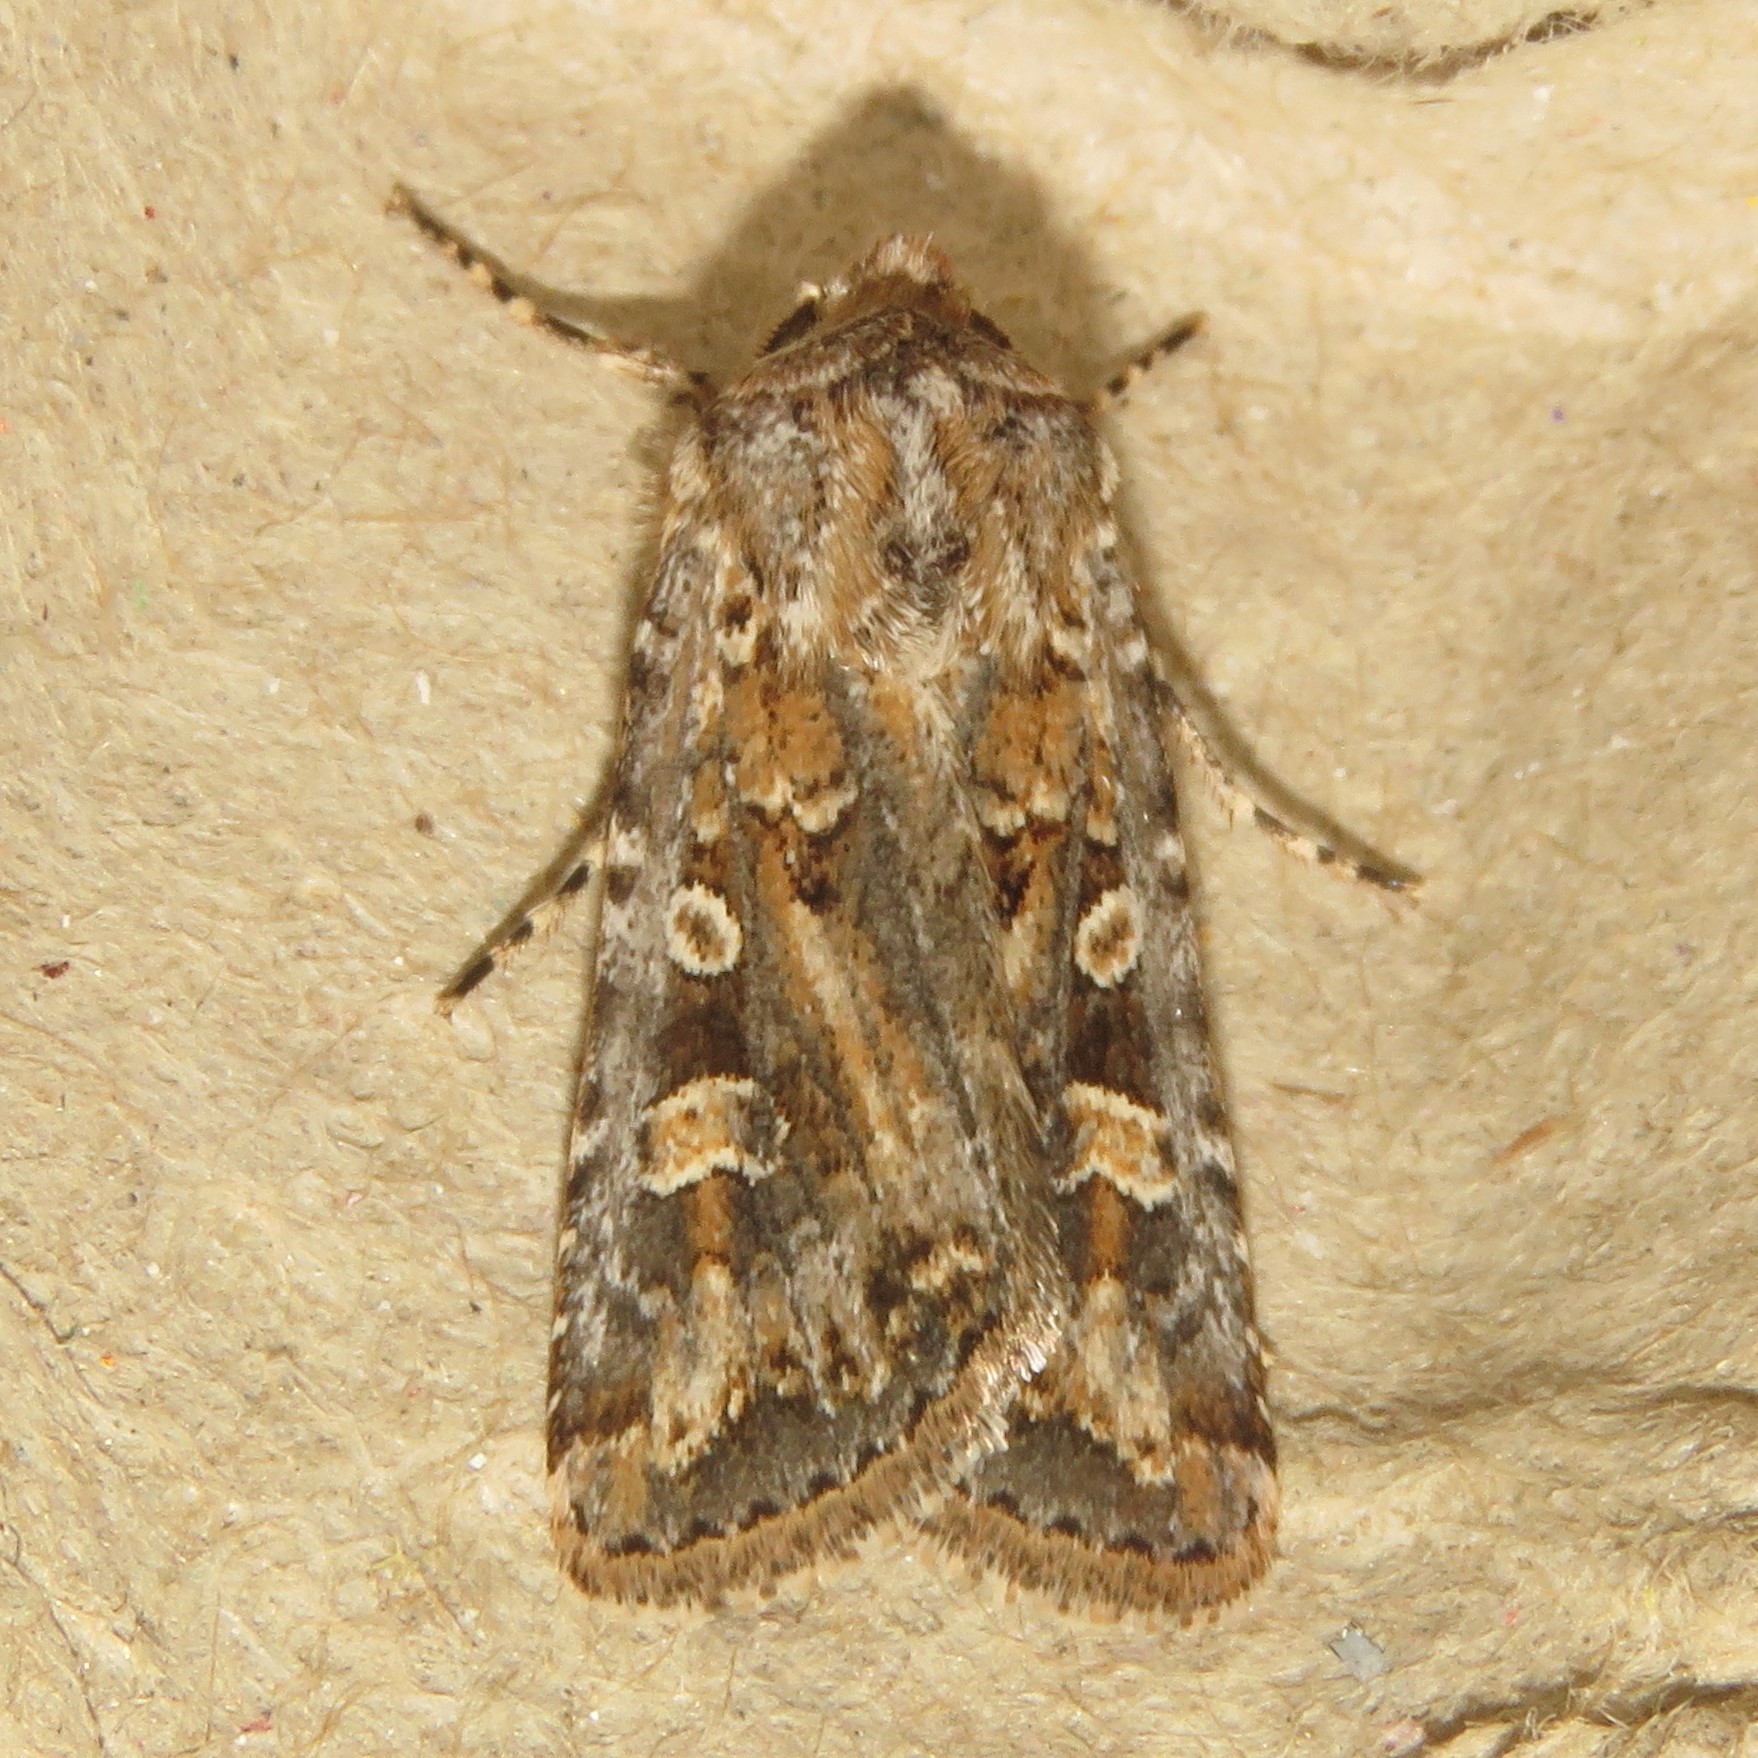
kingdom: Animalia
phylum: Arthropoda
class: Insecta
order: Lepidoptera
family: Noctuidae
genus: Euxoa
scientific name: Euxoa detersa
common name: Rubbed dart
